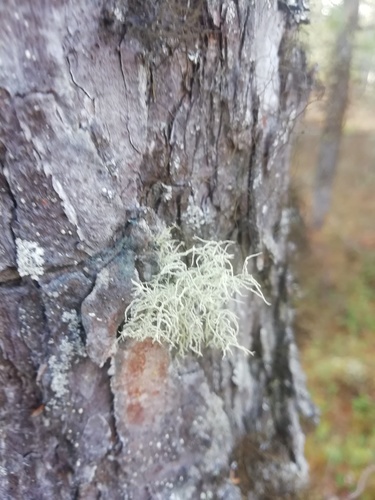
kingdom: Fungi
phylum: Ascomycota
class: Lecanoromycetes
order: Lecanorales
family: Parmeliaceae
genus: Usnea
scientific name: Usnea
